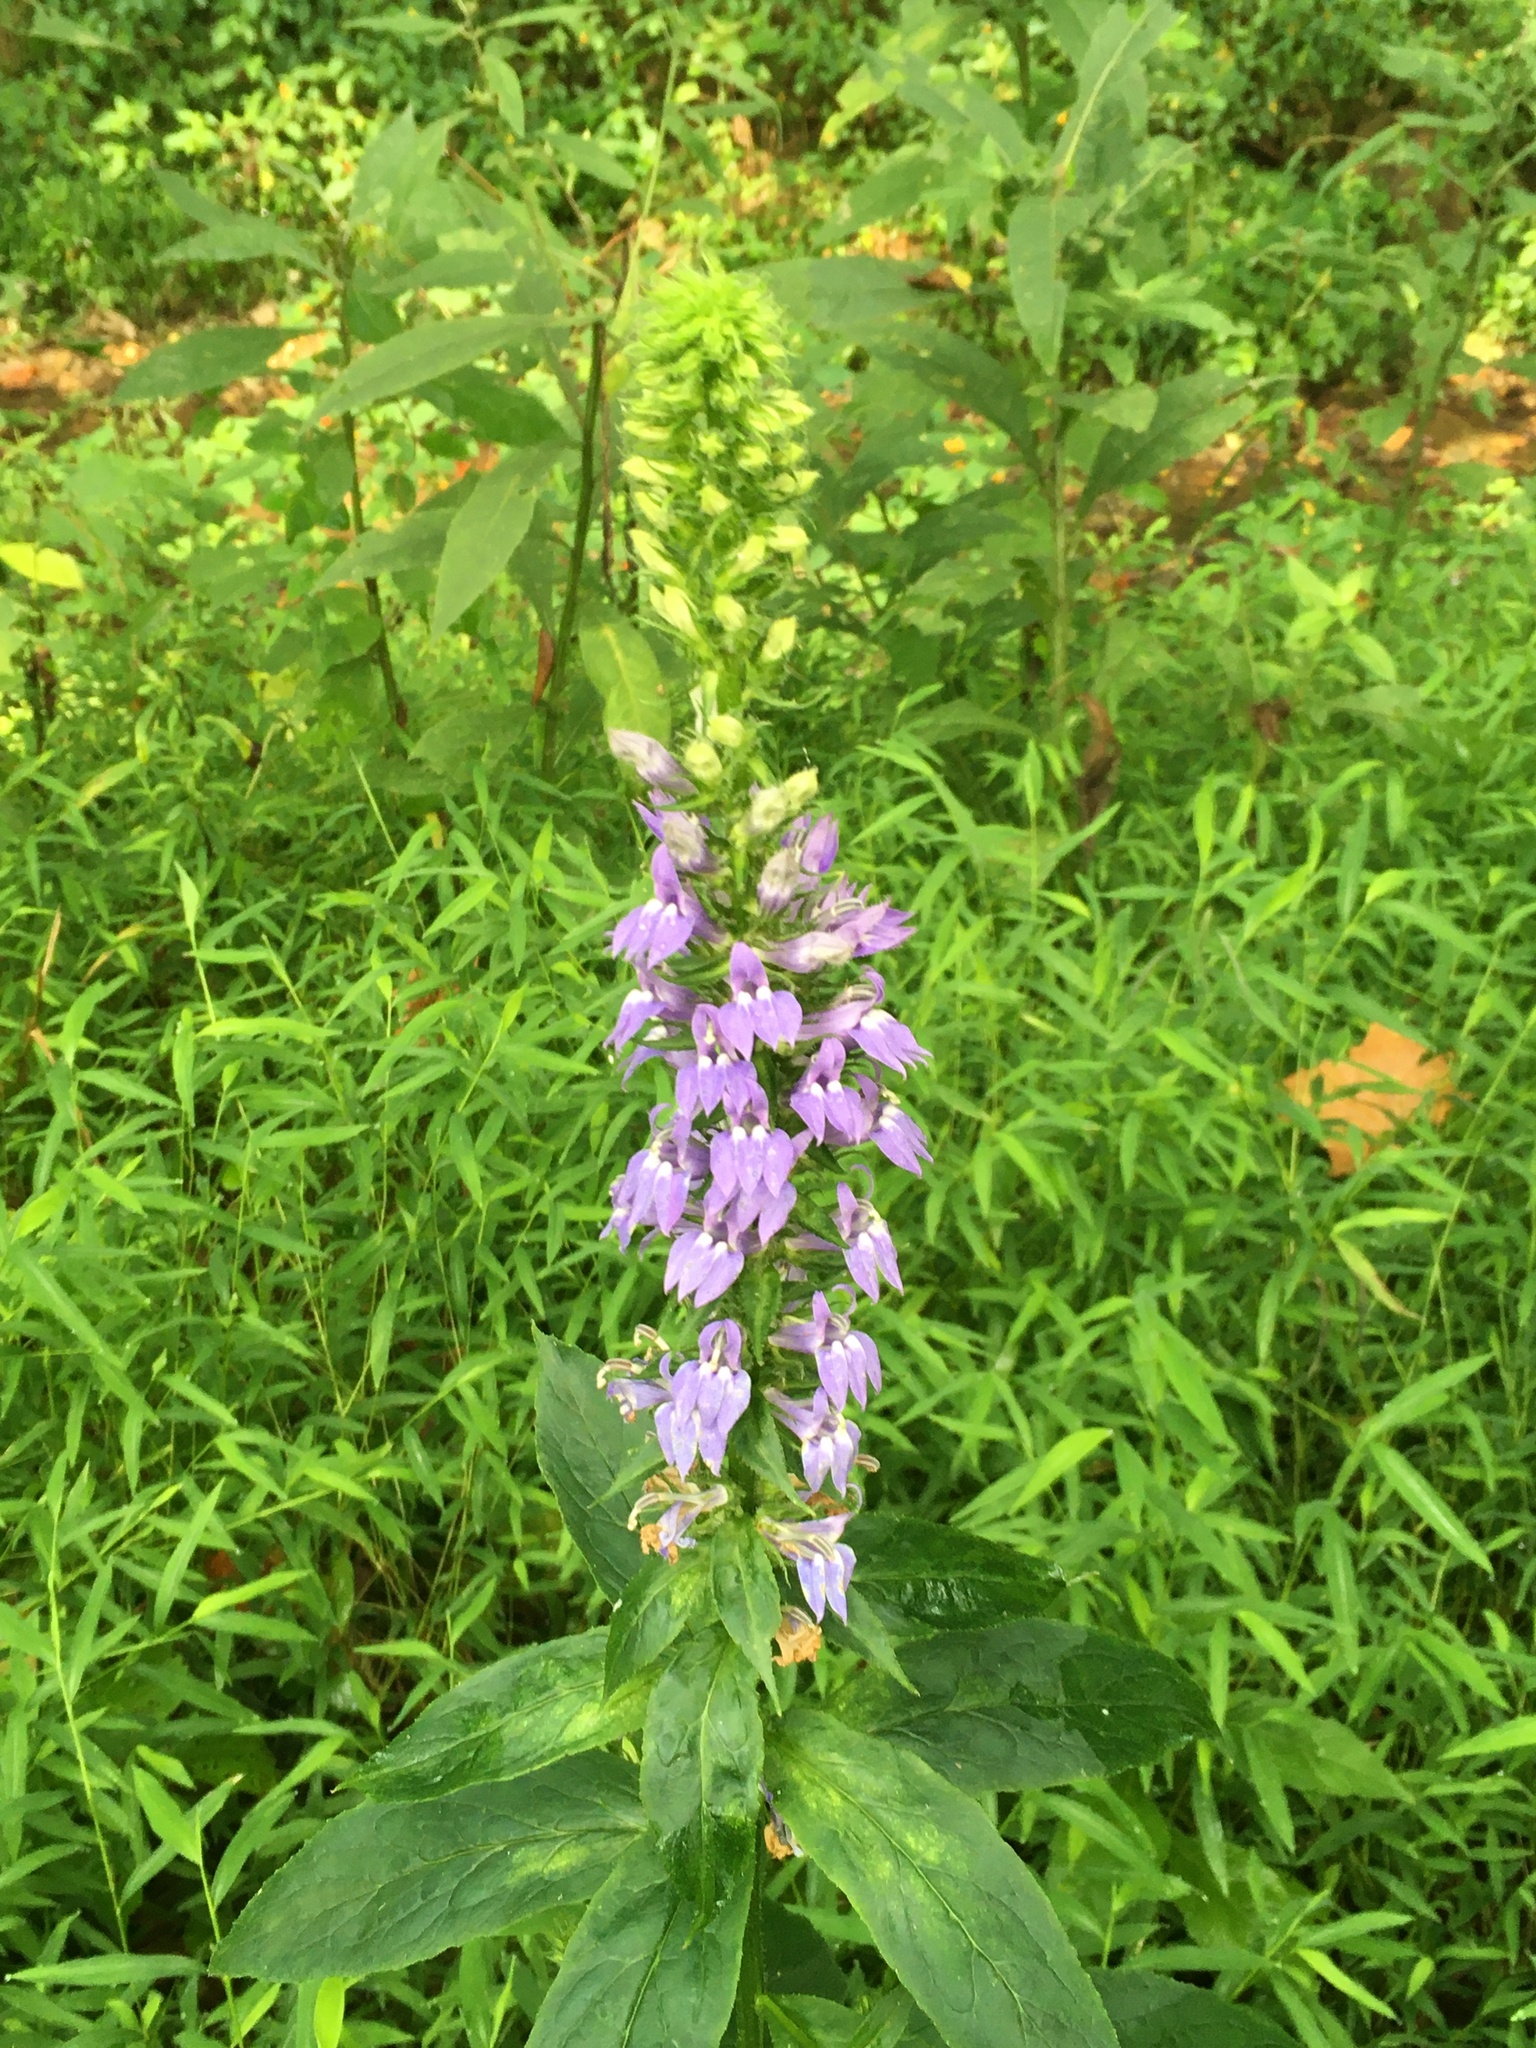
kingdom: Plantae
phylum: Tracheophyta
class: Magnoliopsida
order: Asterales
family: Campanulaceae
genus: Lobelia
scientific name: Lobelia siphilitica
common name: Great lobelia
